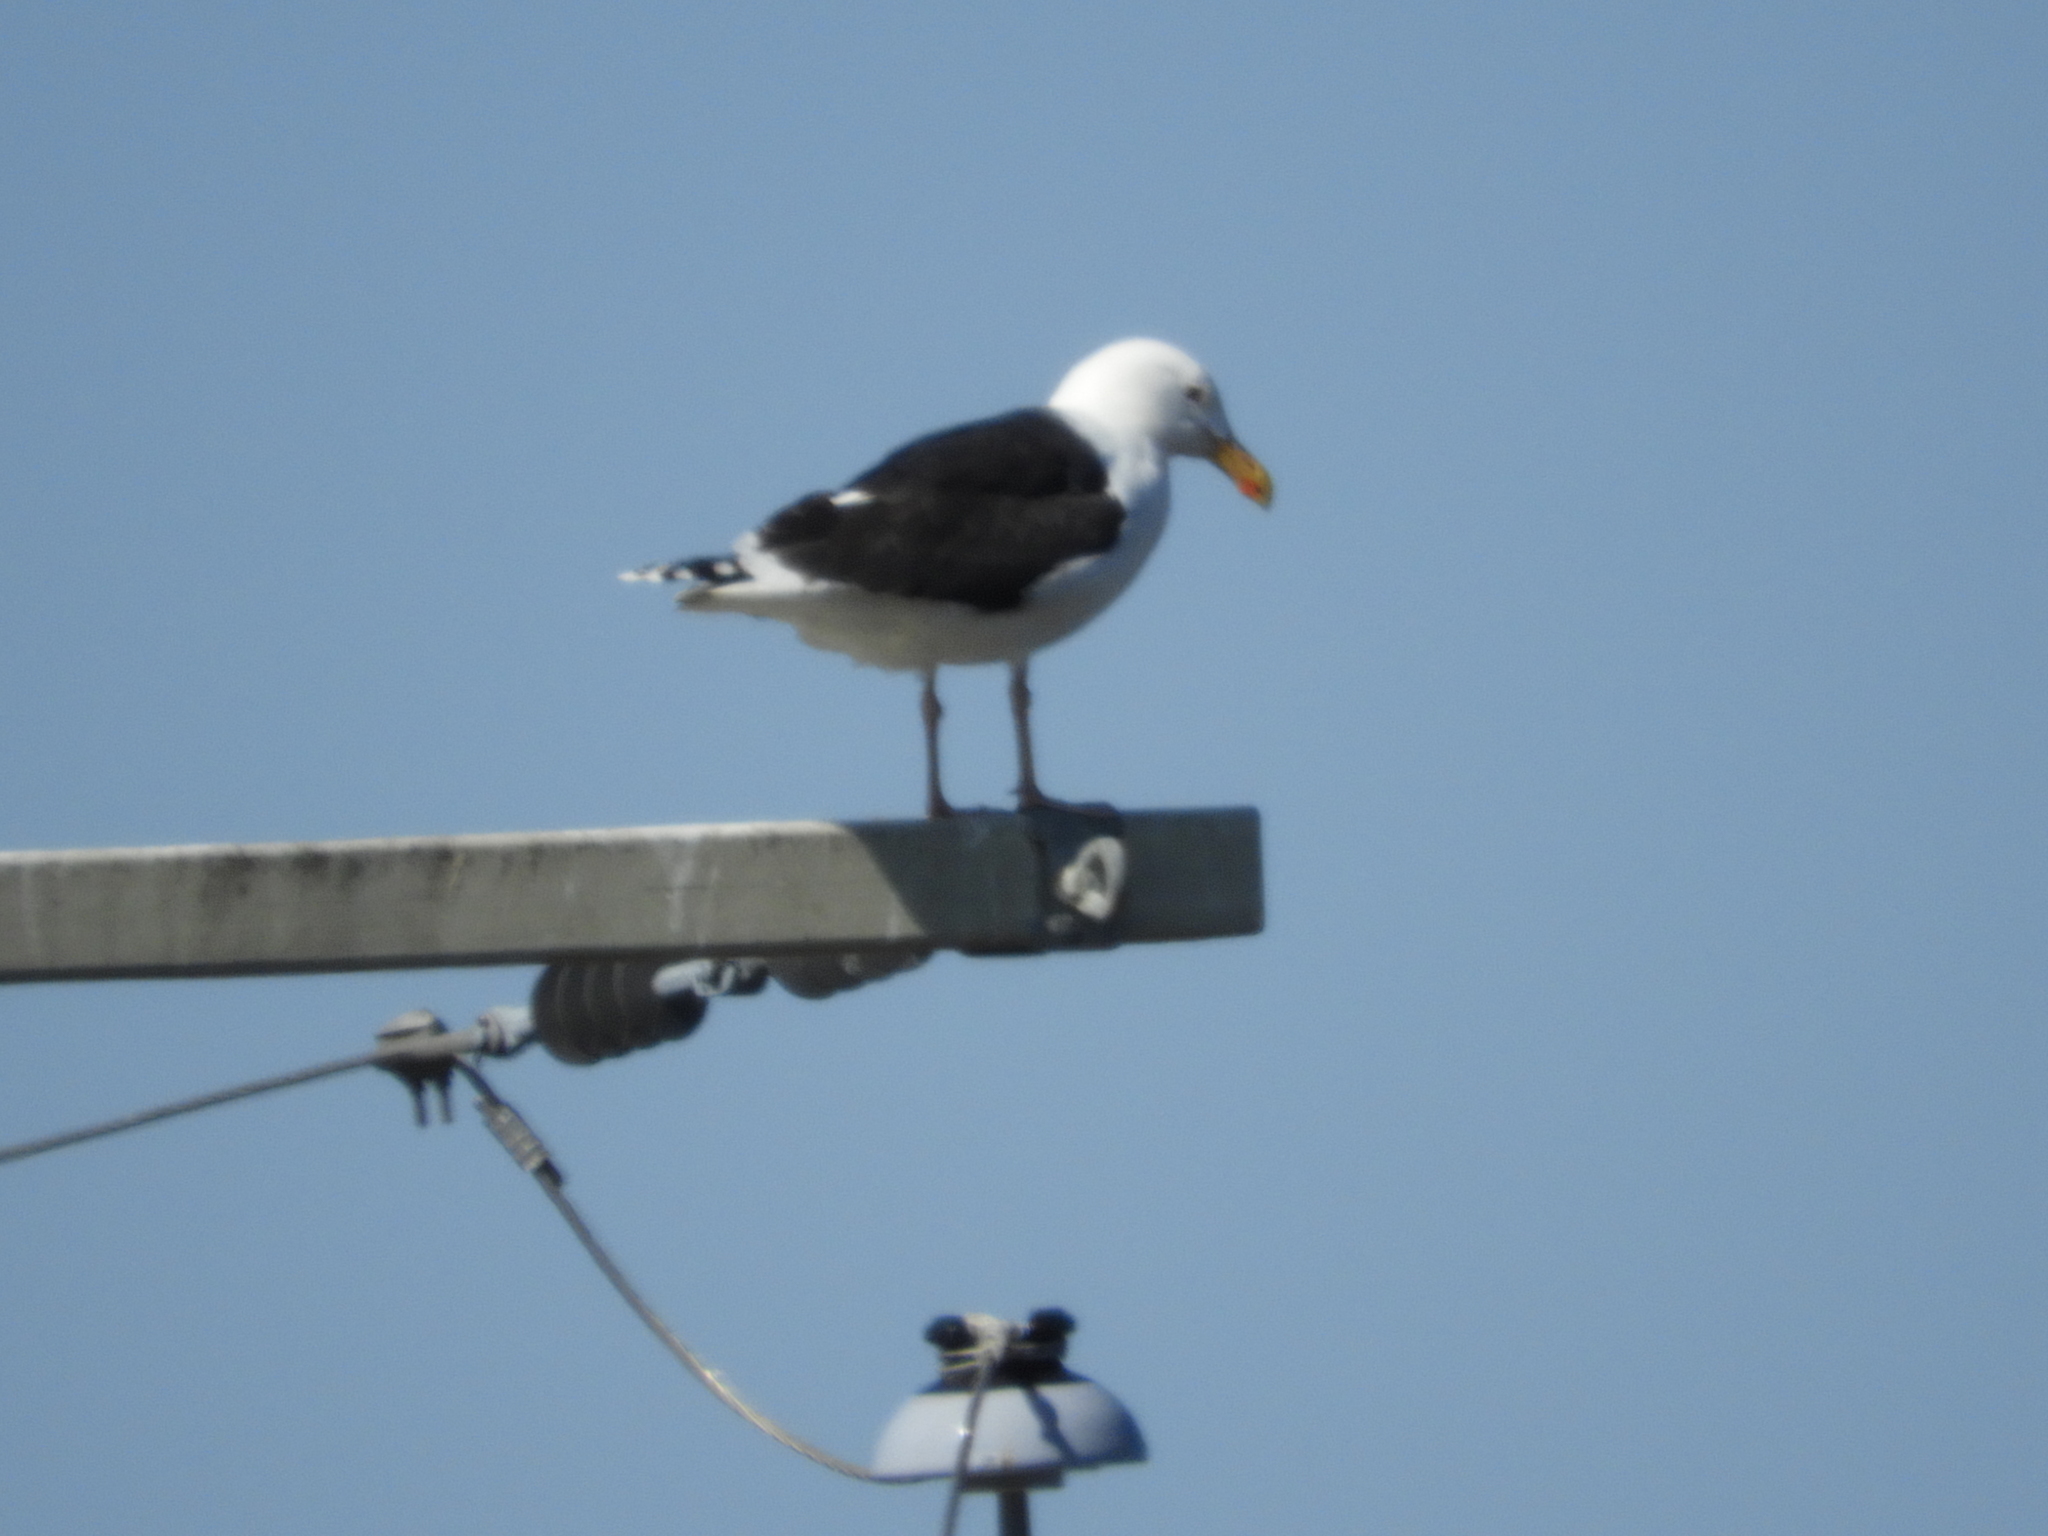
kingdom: Animalia
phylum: Chordata
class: Aves
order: Charadriiformes
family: Laridae
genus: Larus
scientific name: Larus marinus
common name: Great black-backed gull
